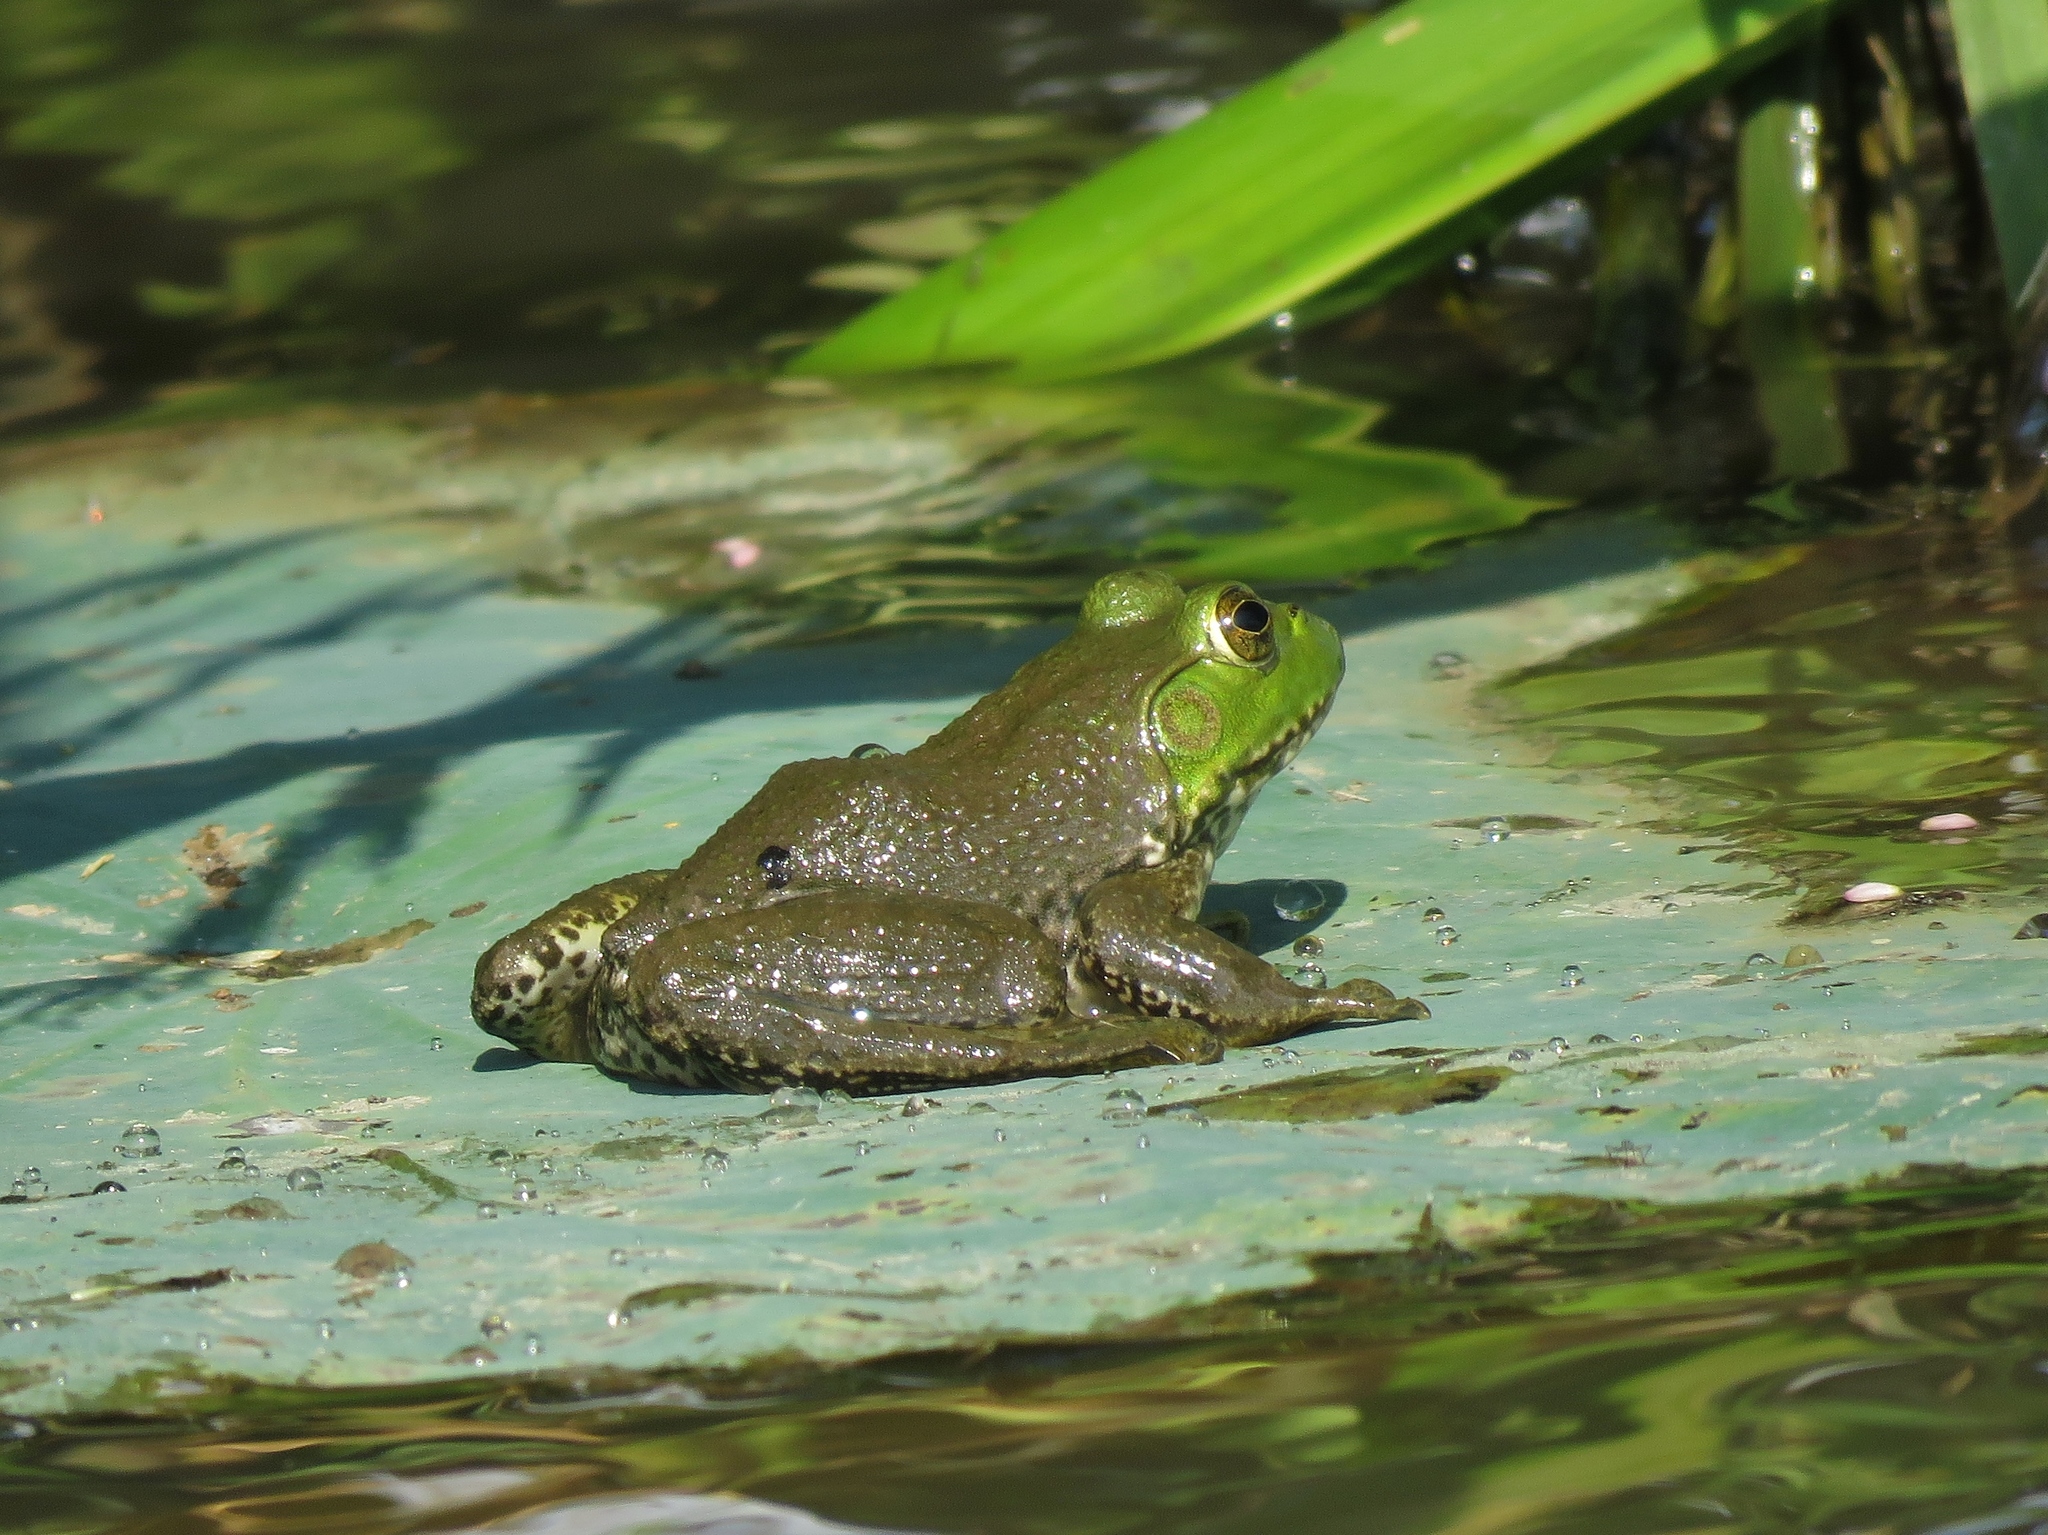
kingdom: Animalia
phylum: Chordata
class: Amphibia
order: Anura
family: Ranidae
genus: Lithobates
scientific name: Lithobates catesbeianus
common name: American bullfrog
